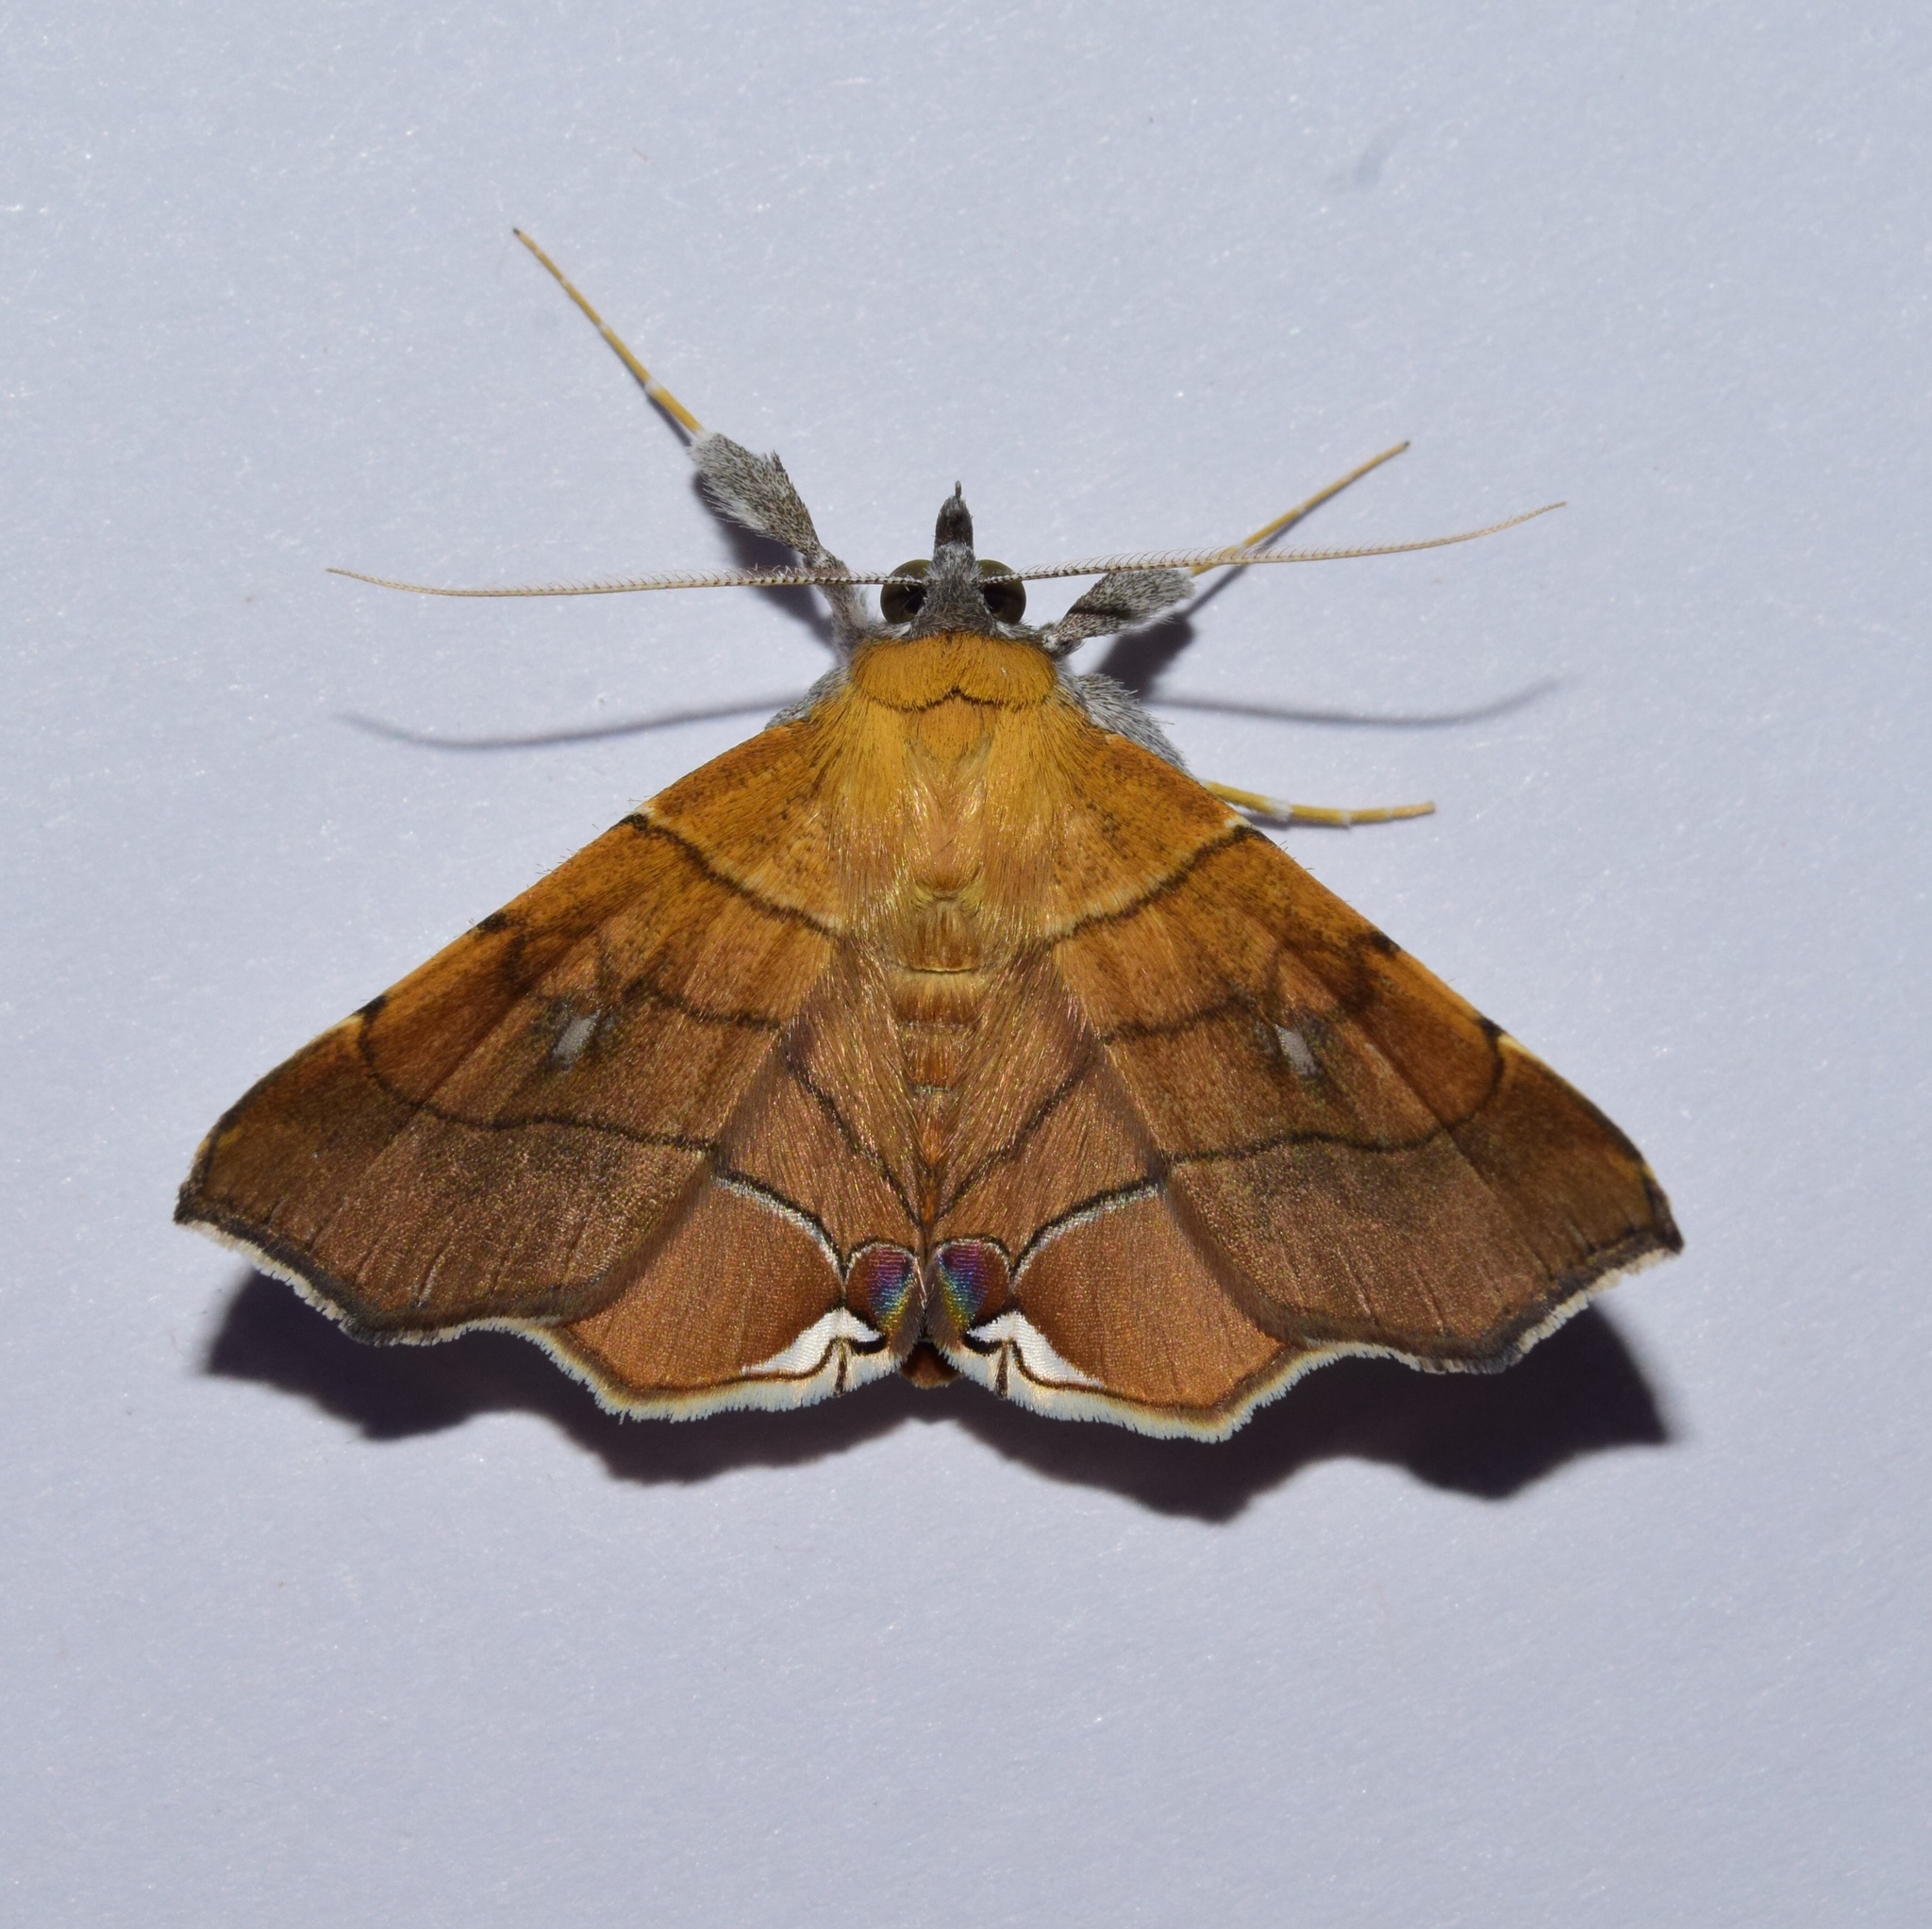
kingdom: Animalia
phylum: Arthropoda
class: Insecta
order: Lepidoptera
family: Erebidae
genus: Gracilodes
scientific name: Gracilodes caffra
